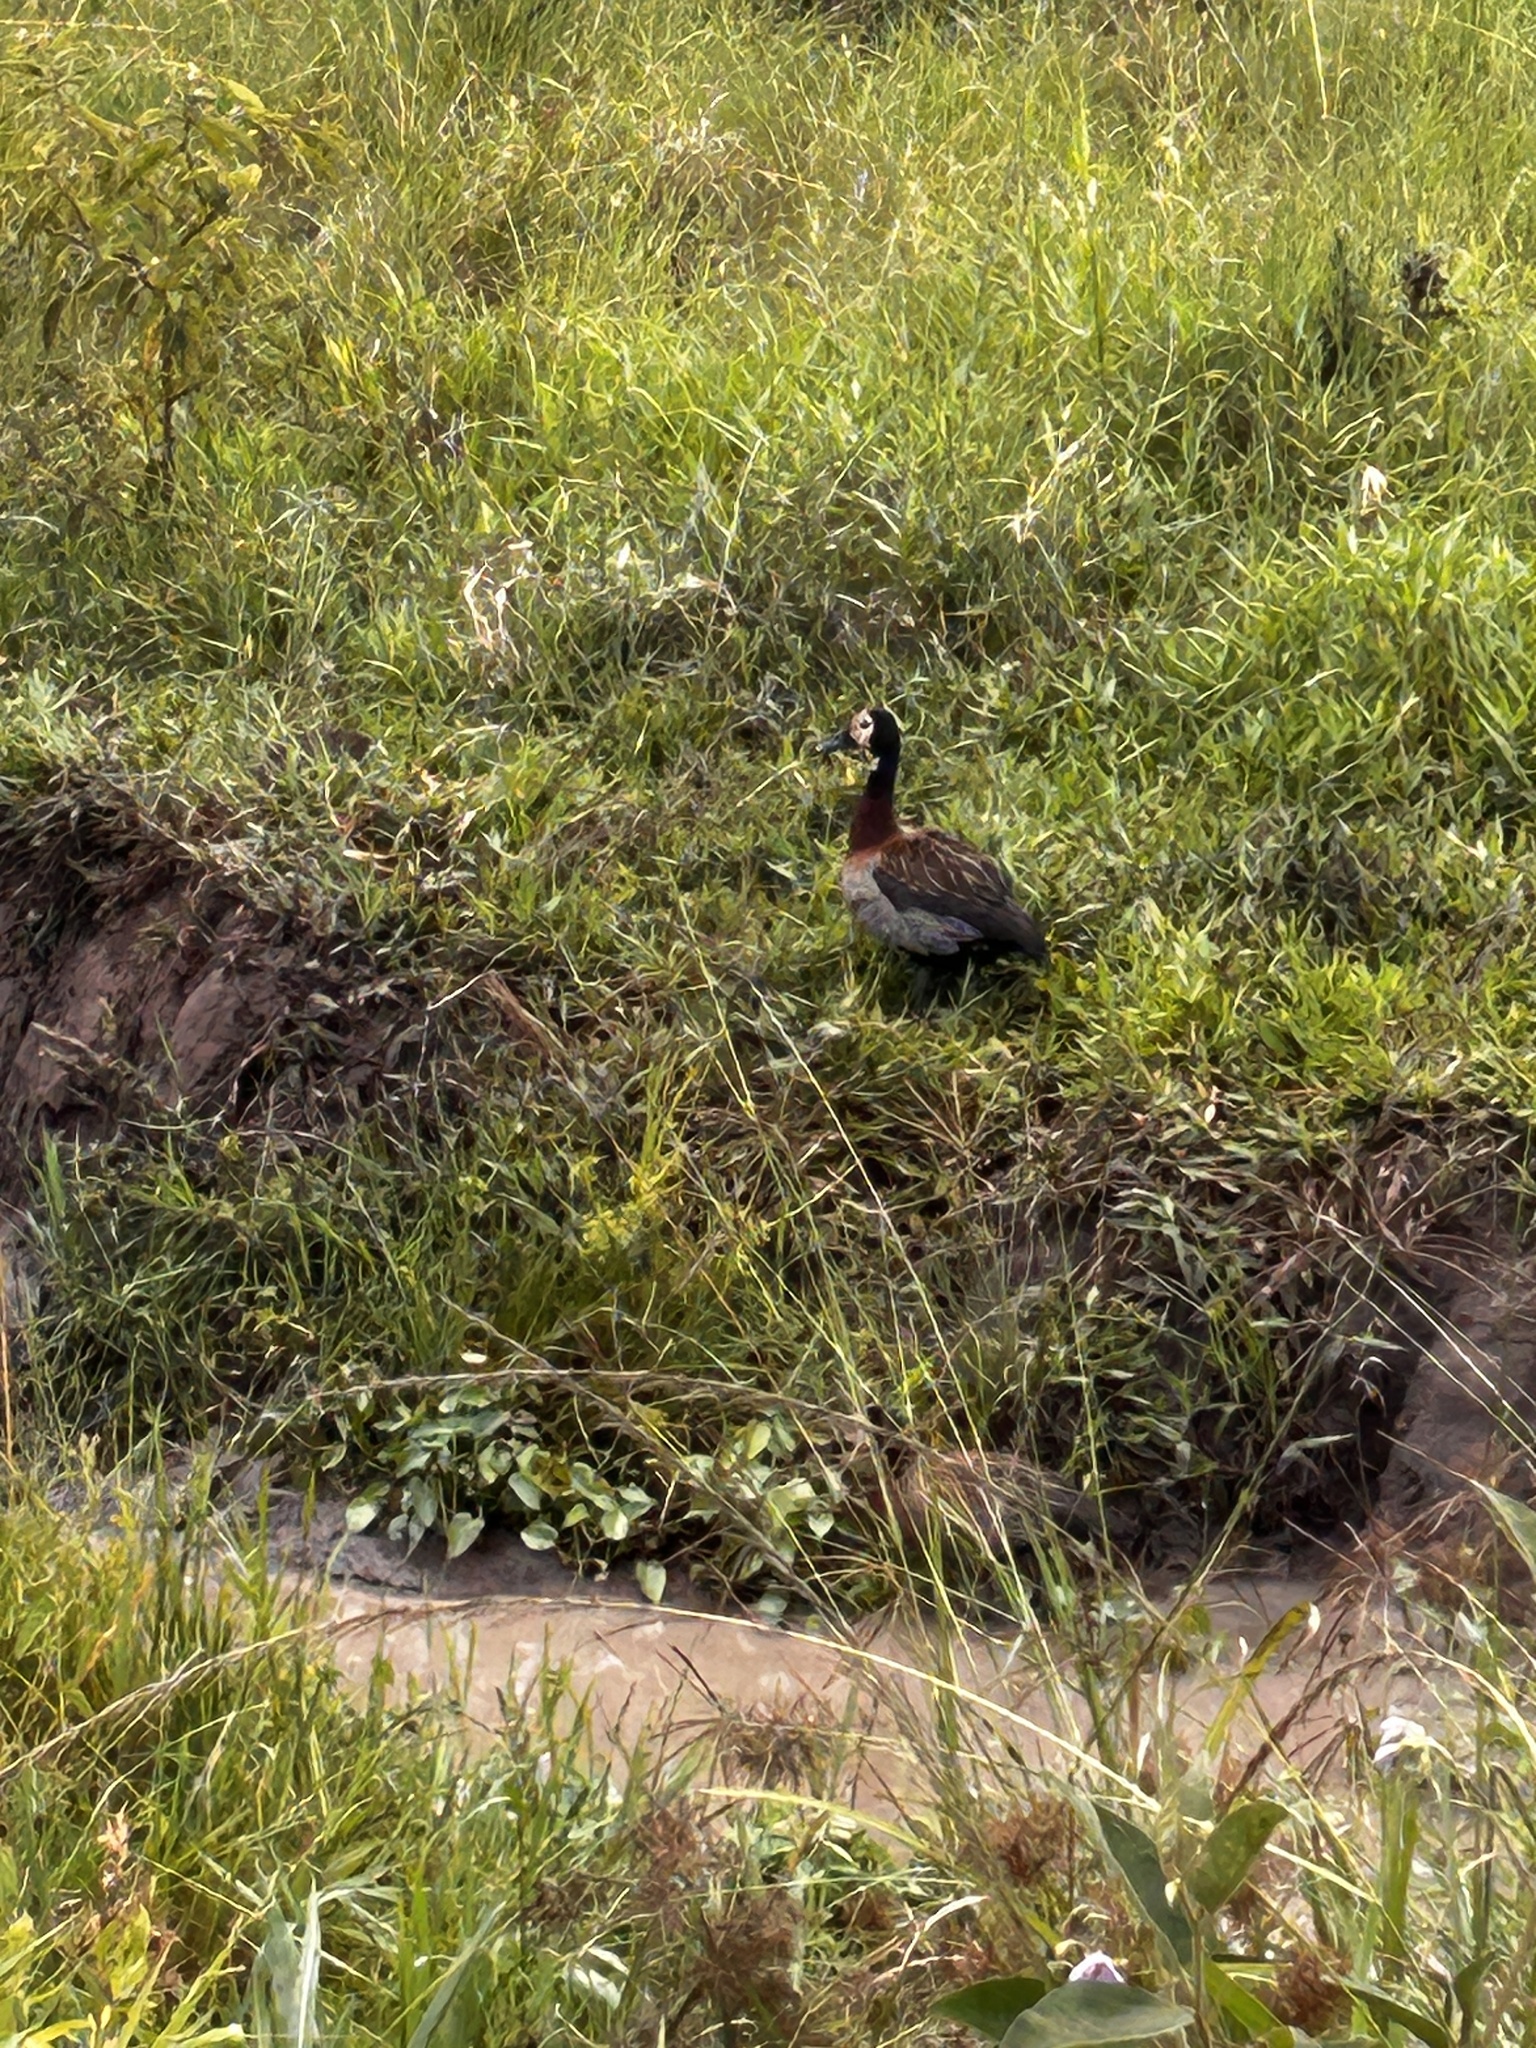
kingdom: Animalia
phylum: Chordata
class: Aves
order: Anseriformes
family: Anatidae
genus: Dendrocygna
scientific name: Dendrocygna viduata
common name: White-faced whistling duck
